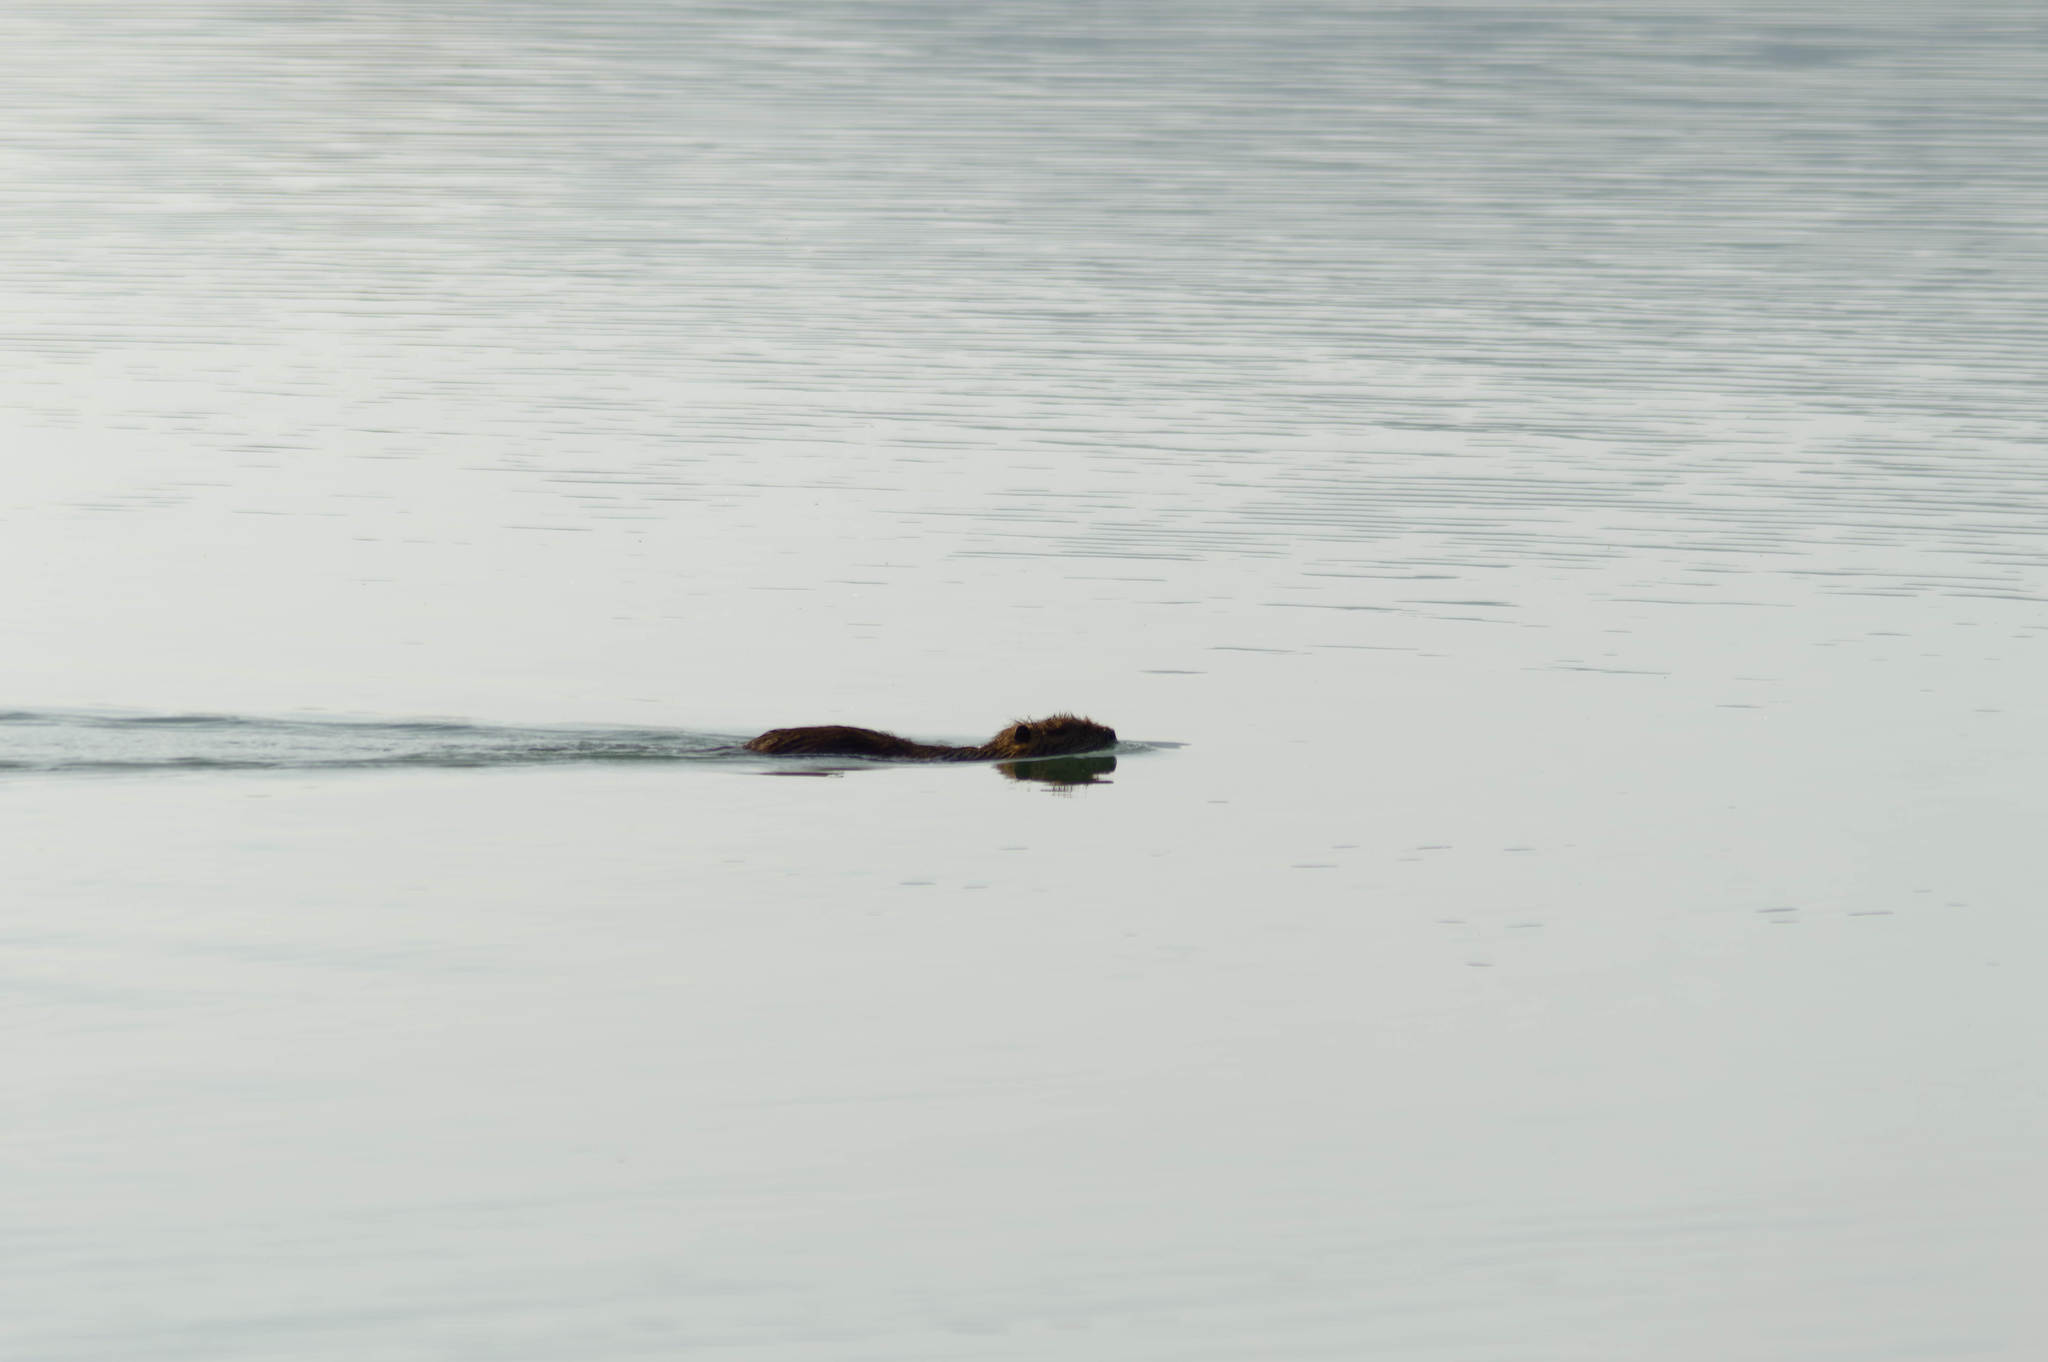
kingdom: Animalia
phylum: Chordata
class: Mammalia
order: Rodentia
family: Myocastoridae
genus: Myocastor
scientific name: Myocastor coypus
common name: Coypu
